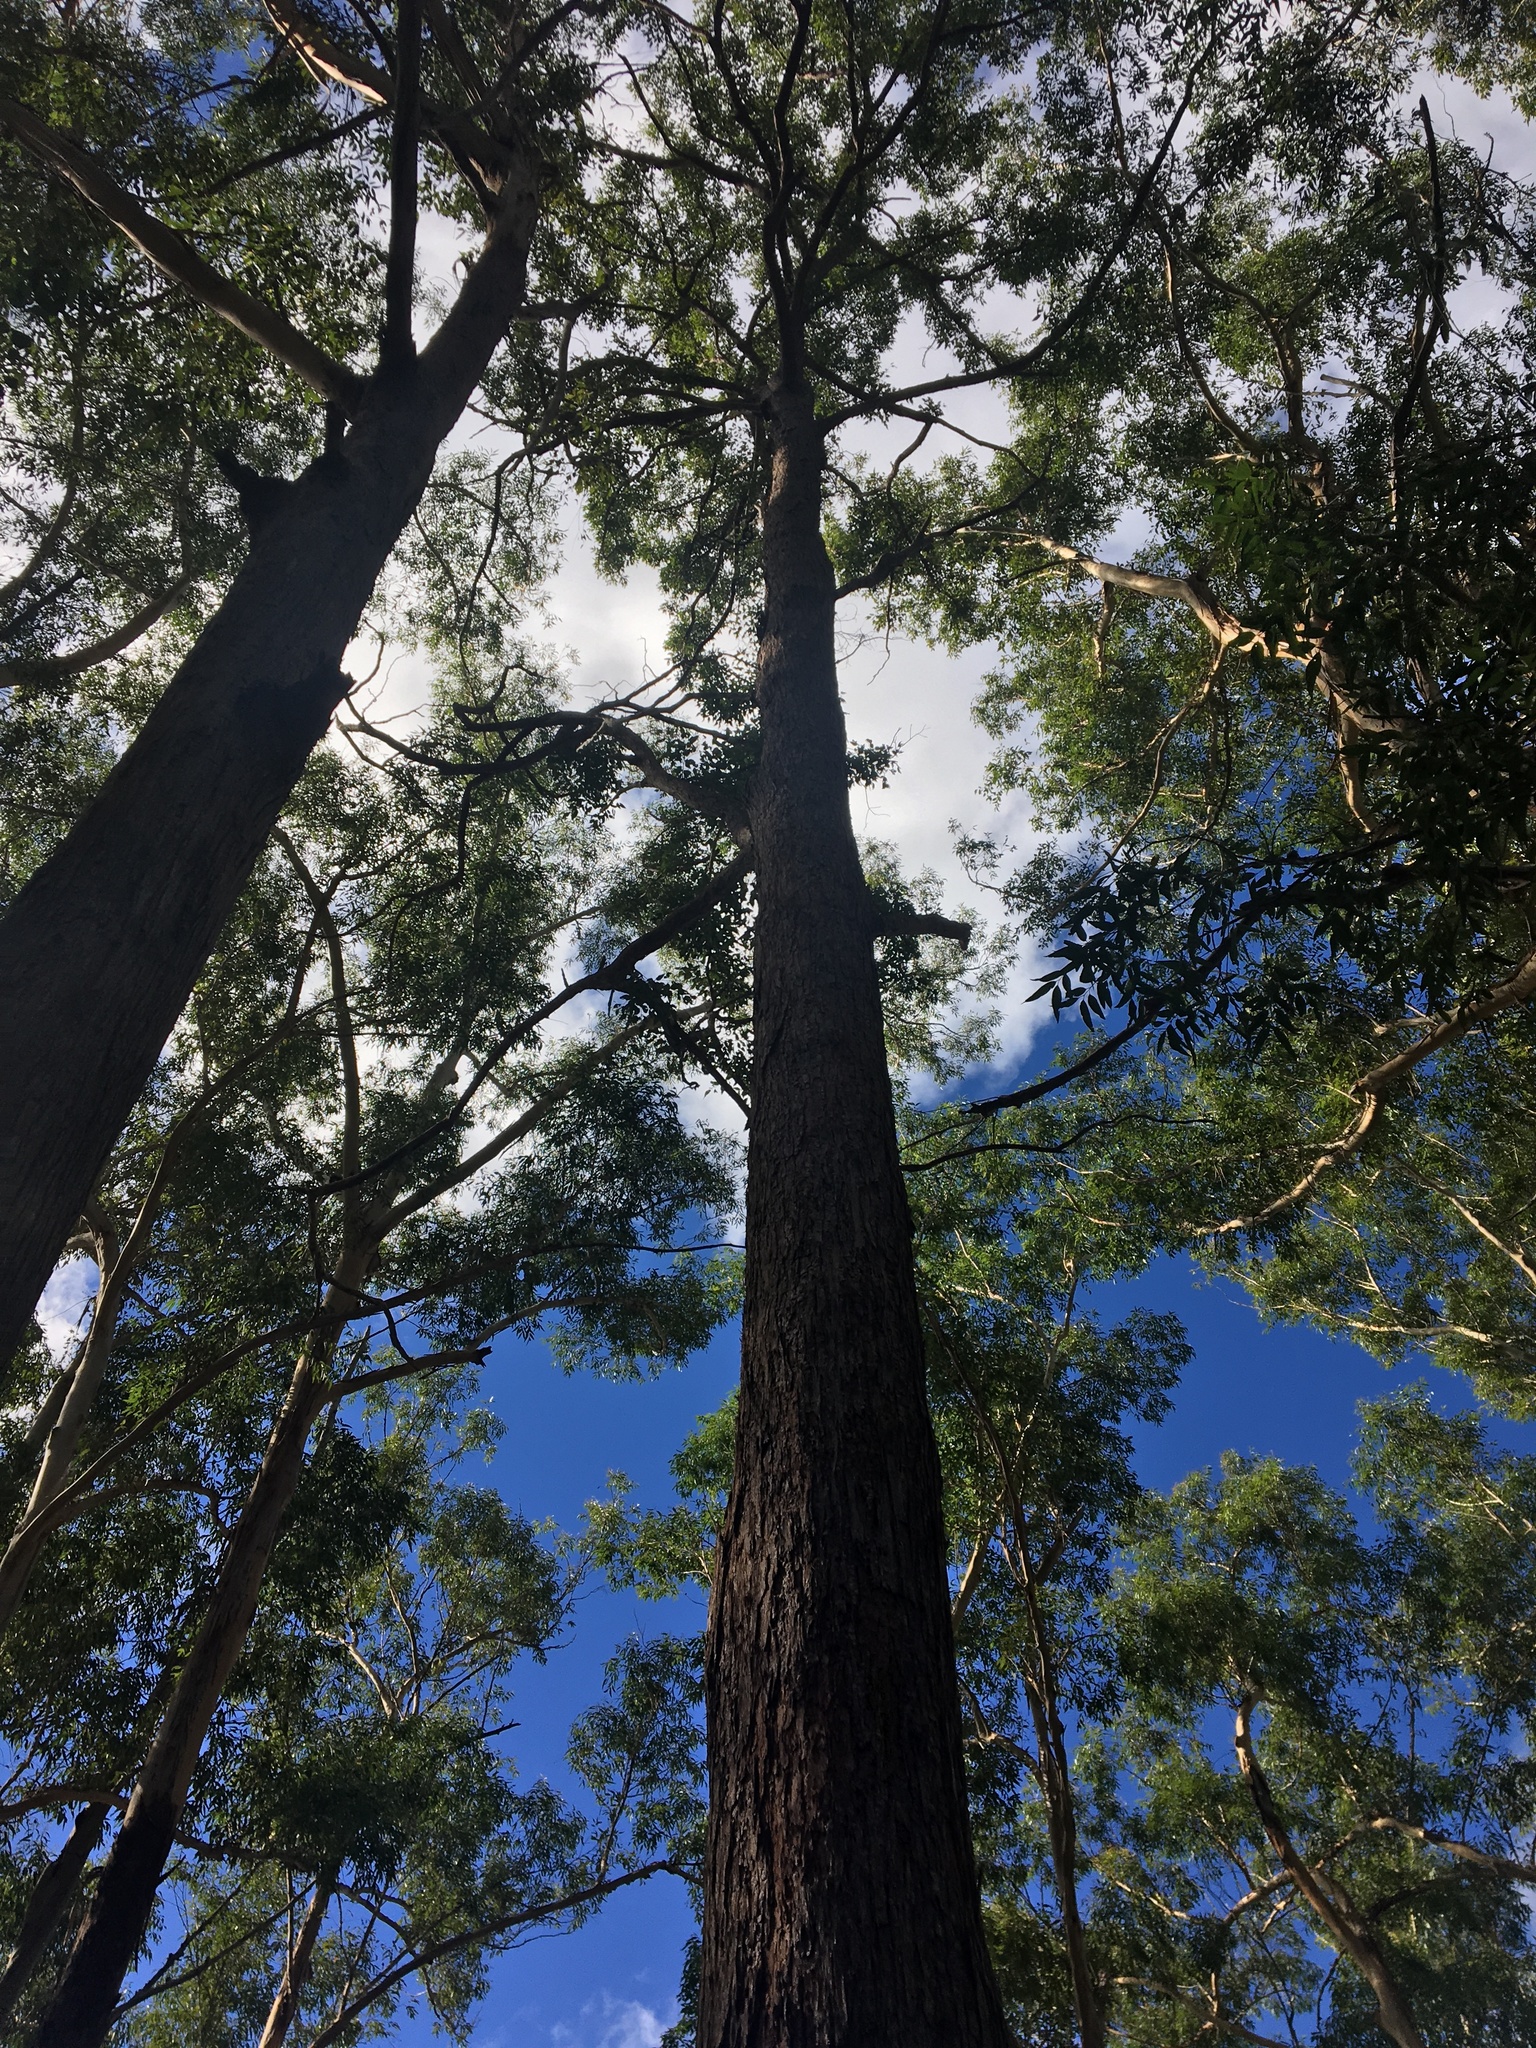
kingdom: Plantae
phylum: Tracheophyta
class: Magnoliopsida
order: Myrtales
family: Myrtaceae
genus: Eucalyptus
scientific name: Eucalyptus microcorys
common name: Tallowwood
